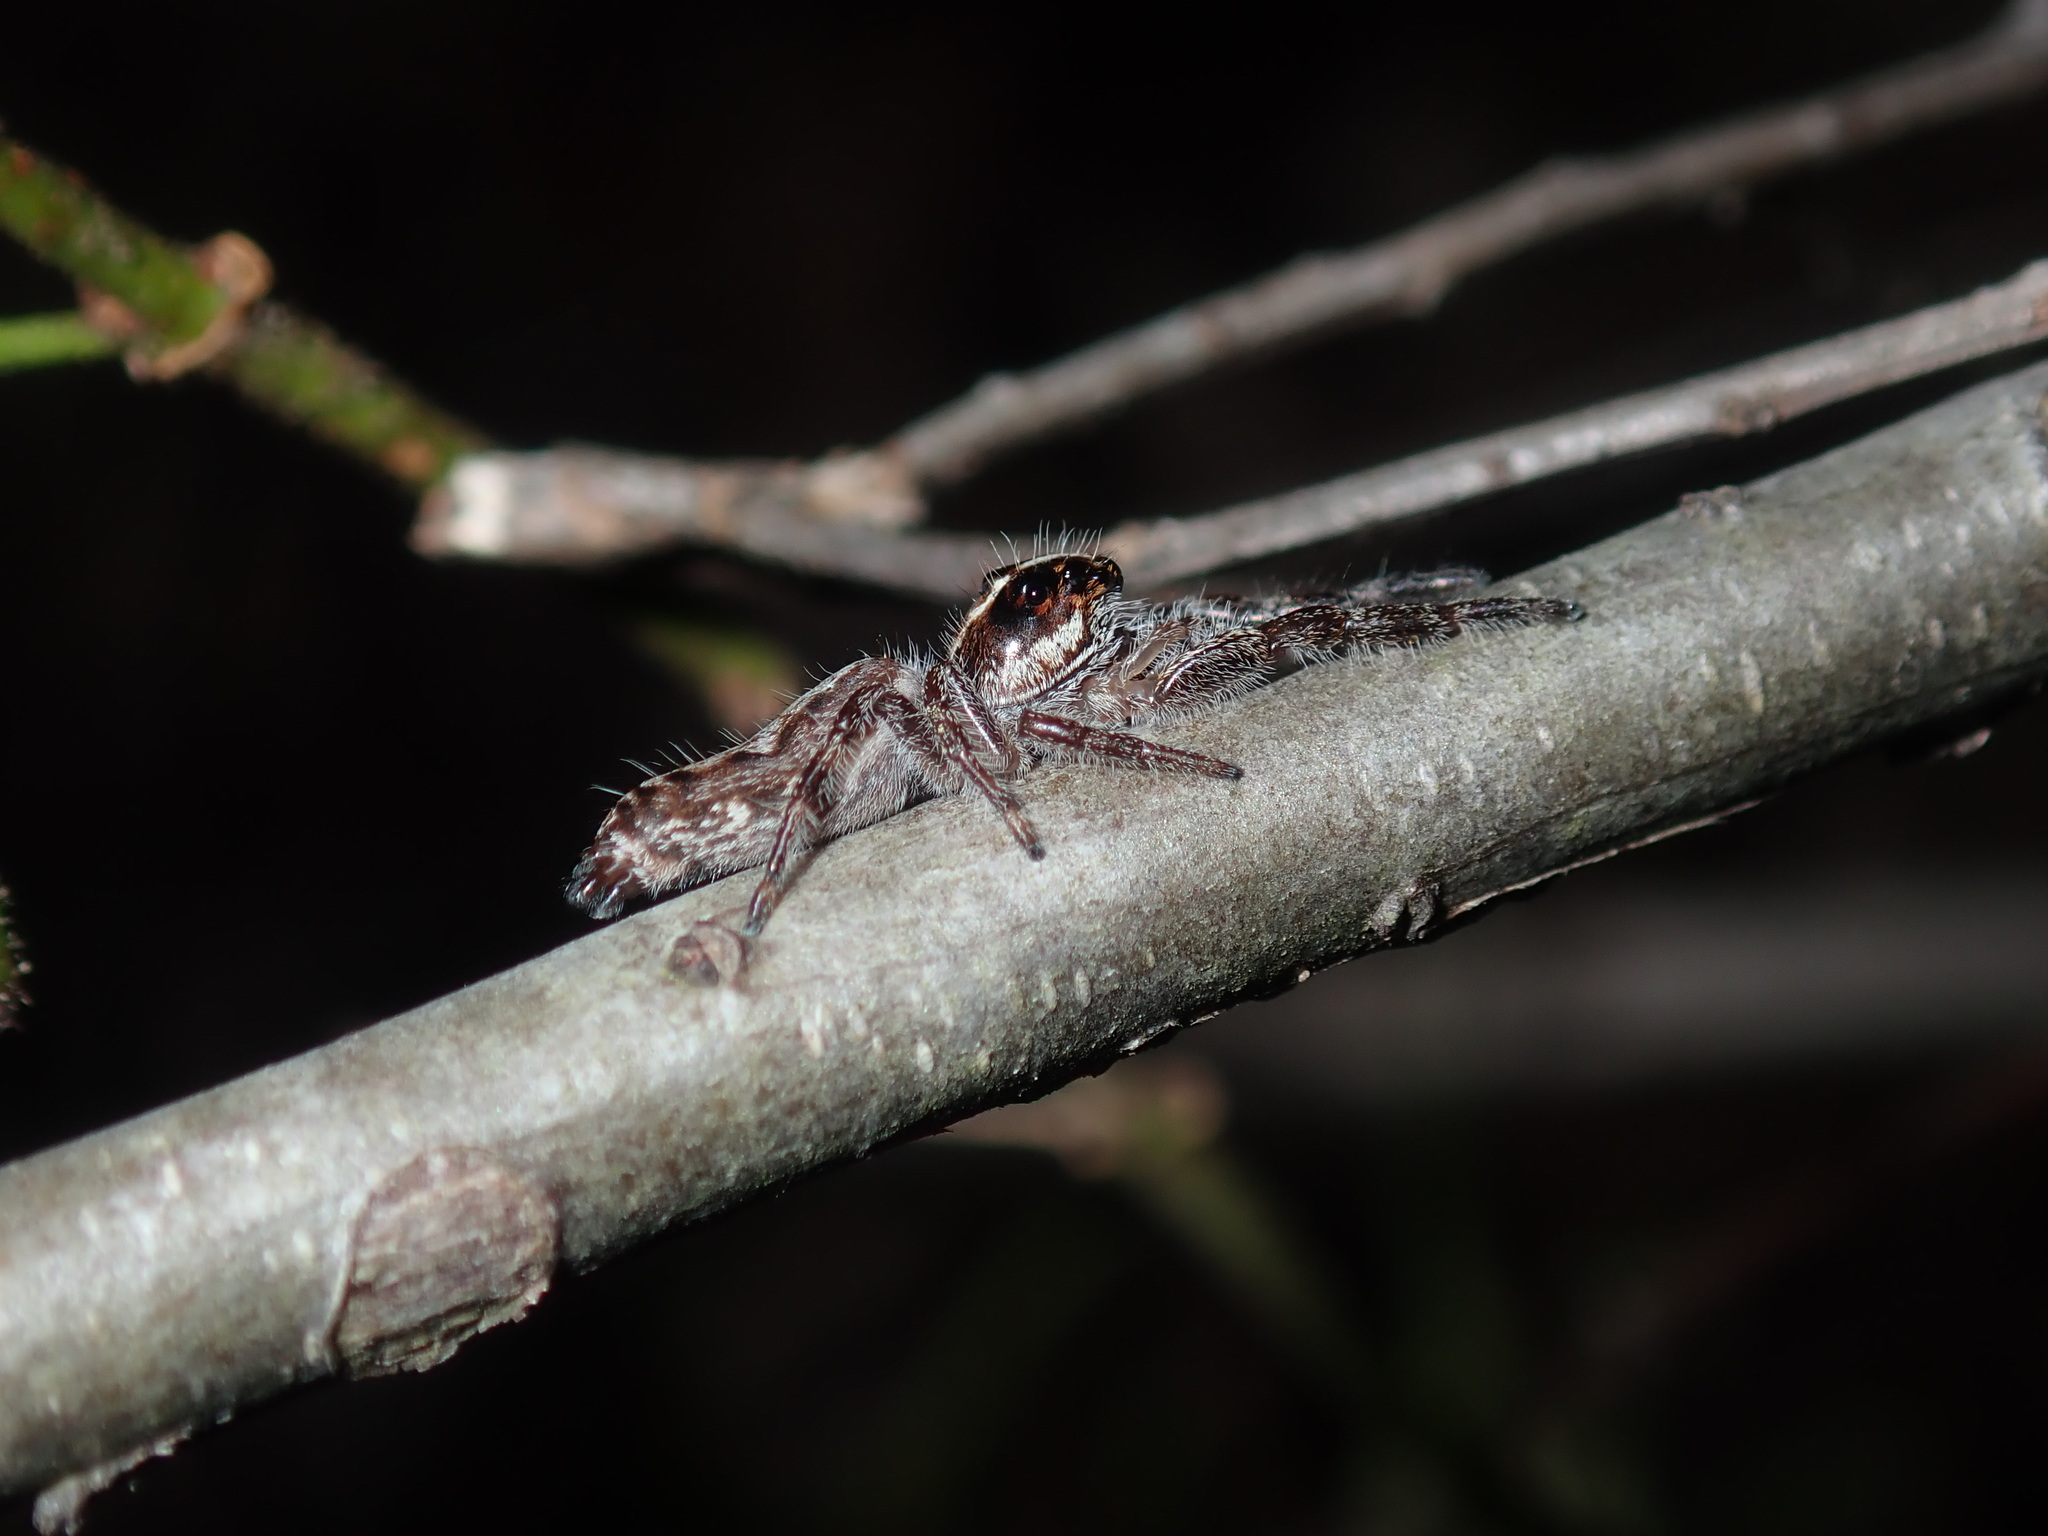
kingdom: Animalia
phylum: Arthropoda
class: Arachnida
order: Araneae
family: Salticidae
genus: Sandalodes
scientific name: Sandalodes bipenicillatus
